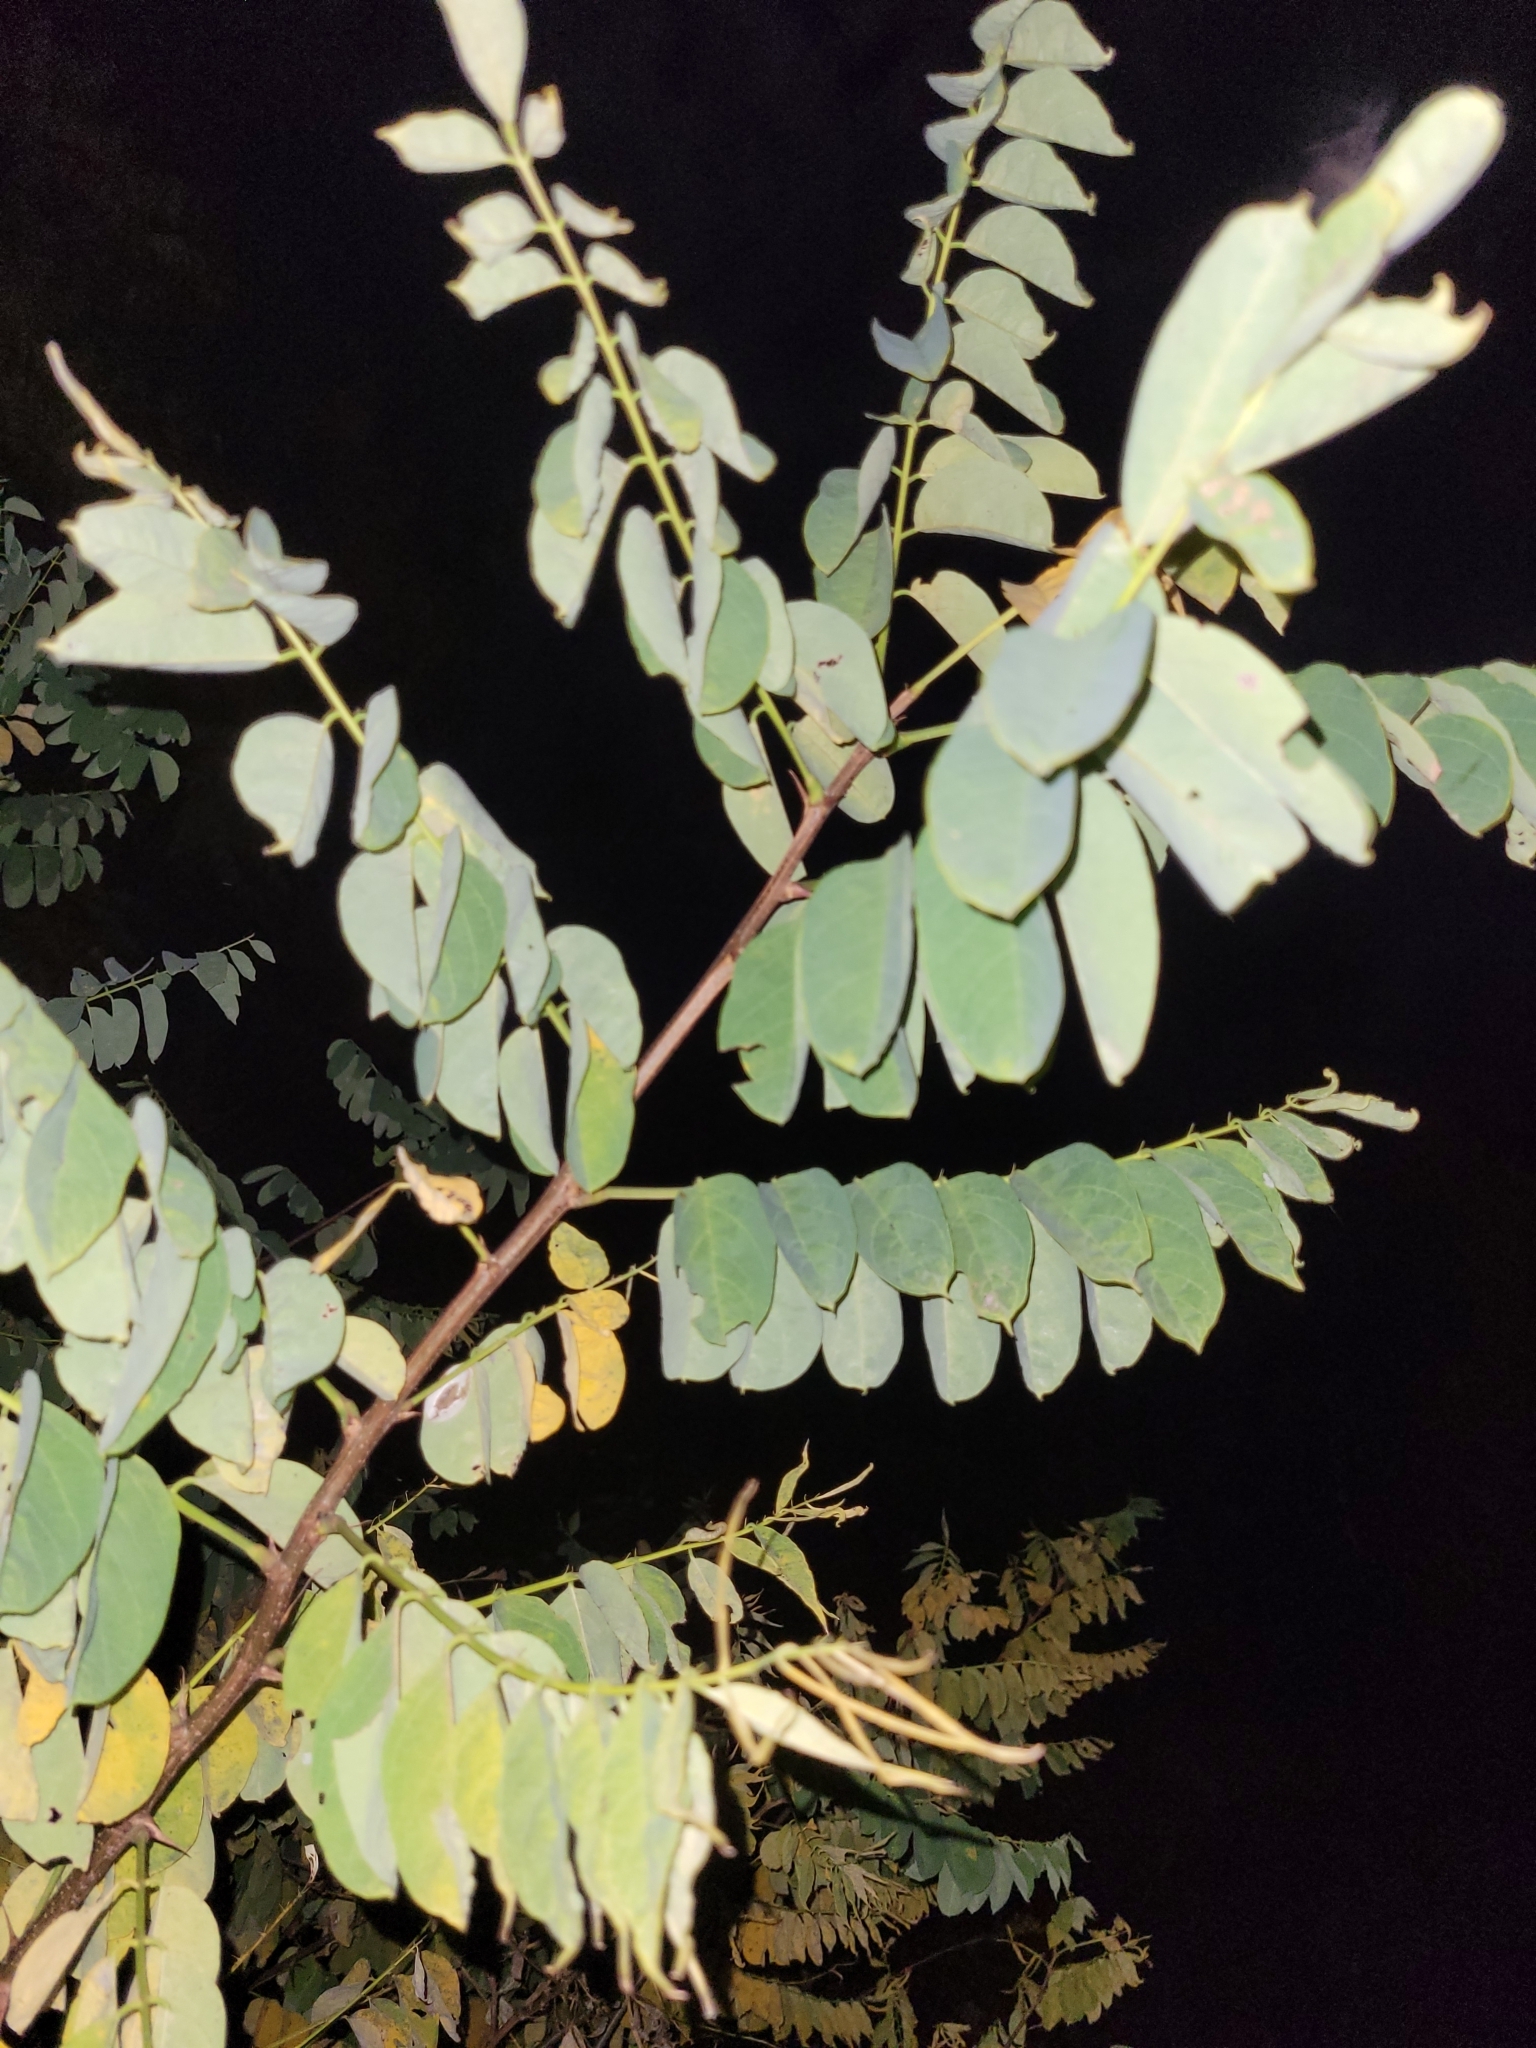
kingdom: Plantae
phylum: Tracheophyta
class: Magnoliopsida
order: Fabales
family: Fabaceae
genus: Robinia
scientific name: Robinia pseudoacacia
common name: Black locust
